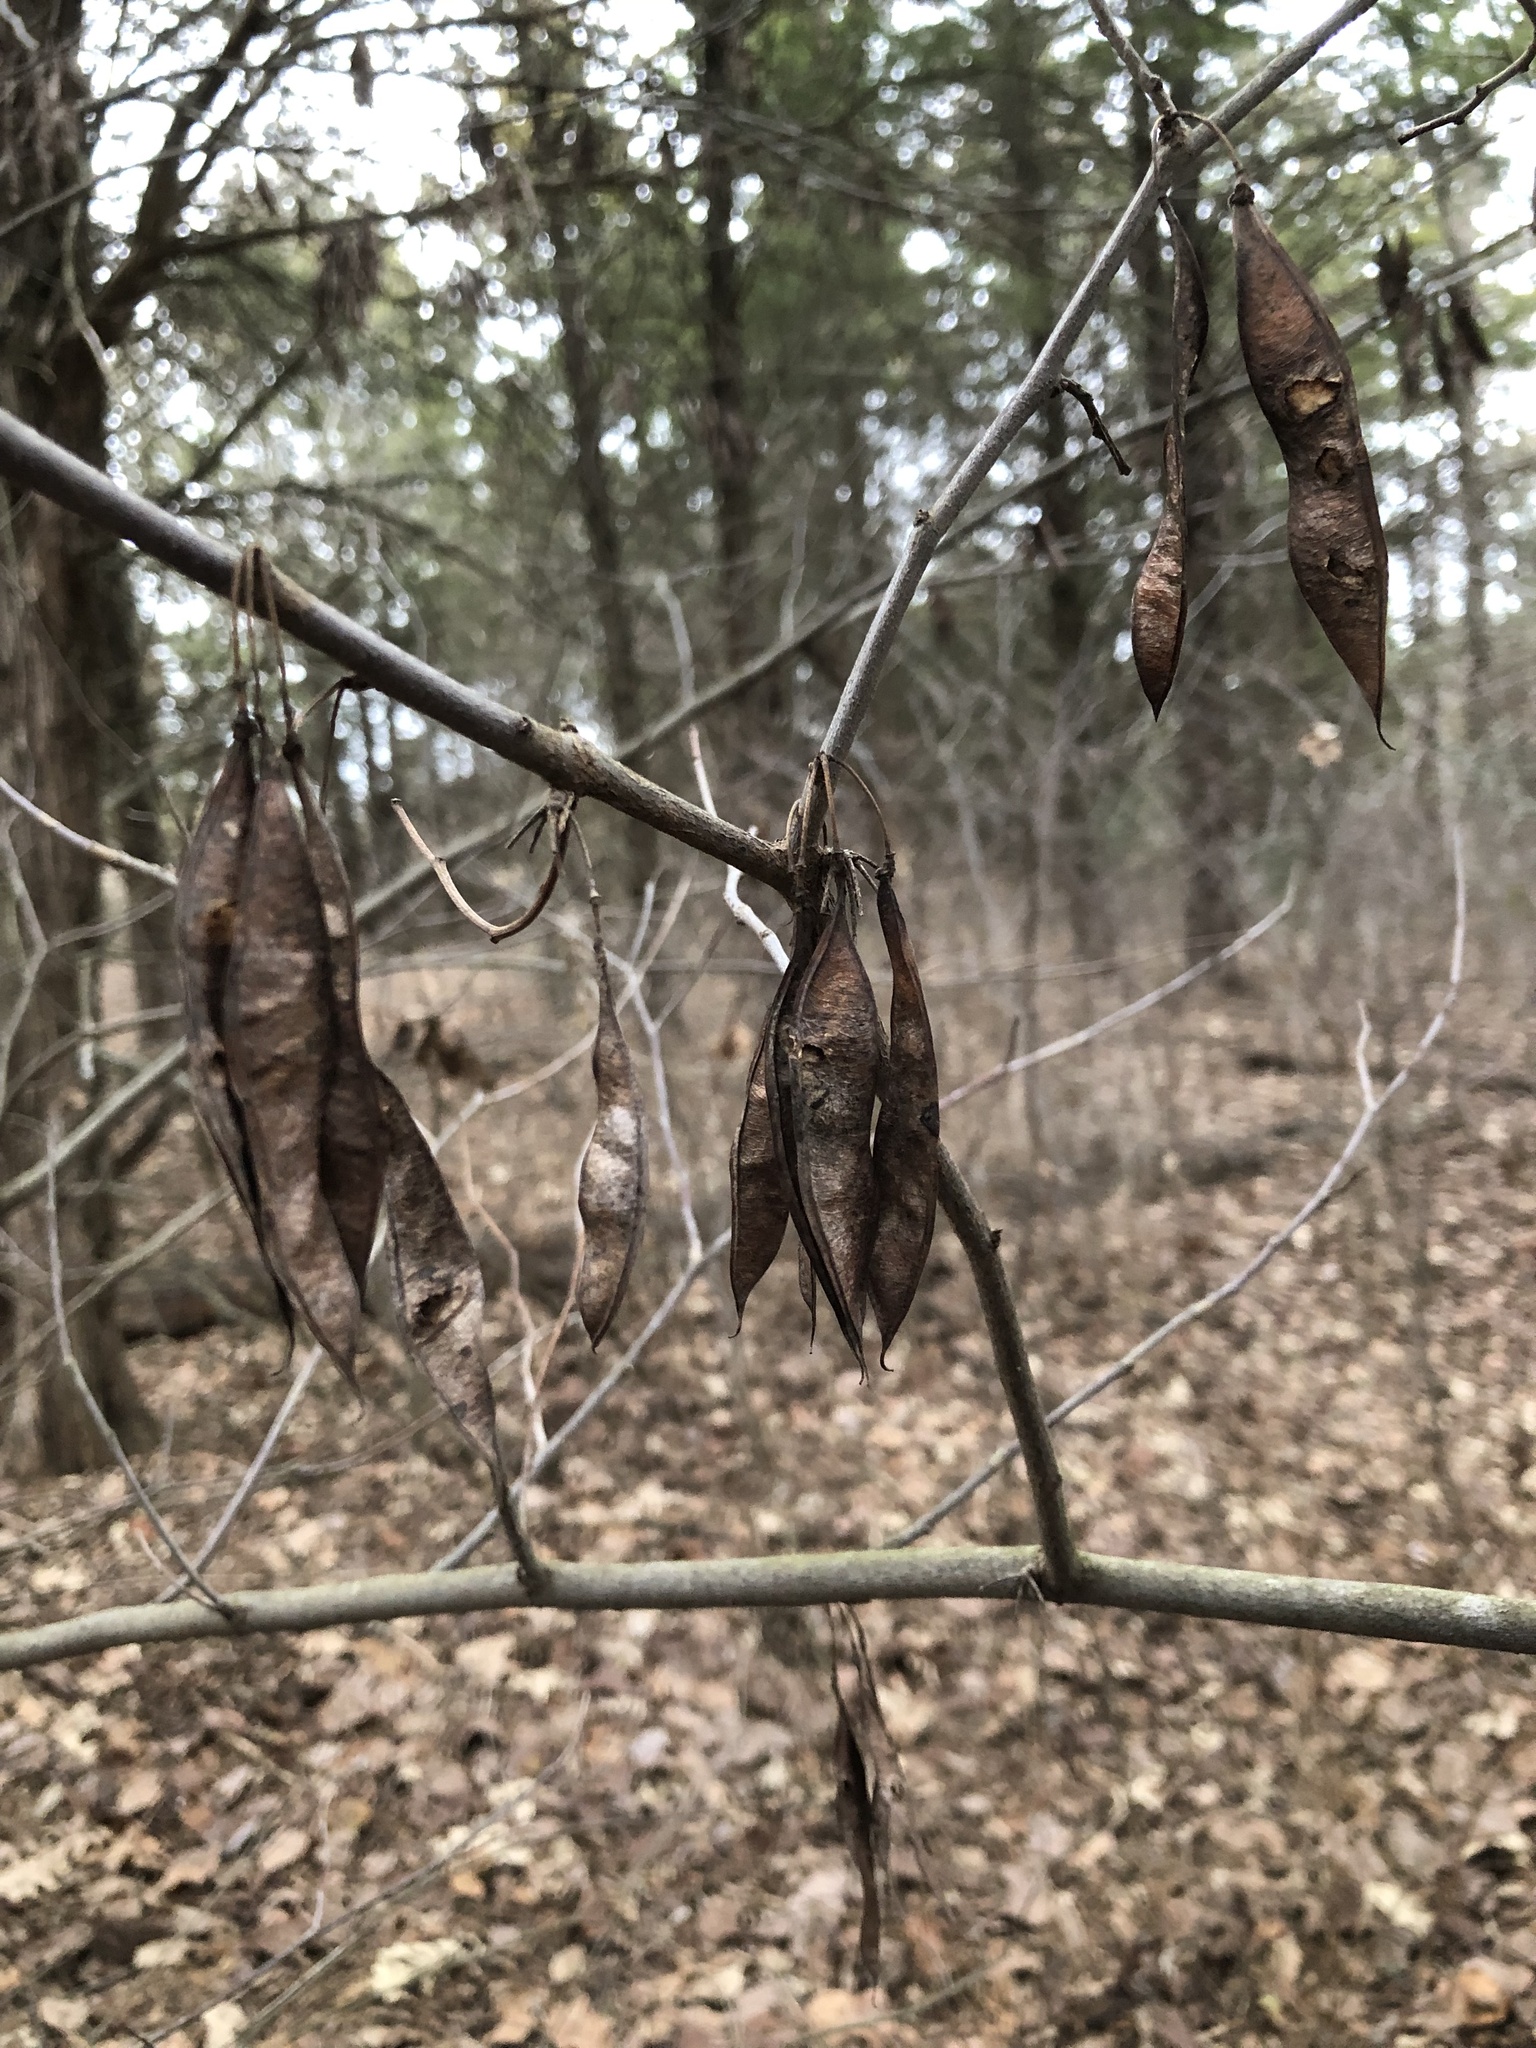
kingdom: Plantae
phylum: Tracheophyta
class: Magnoliopsida
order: Fabales
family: Fabaceae
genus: Cercis
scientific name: Cercis canadensis
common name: Eastern redbud
